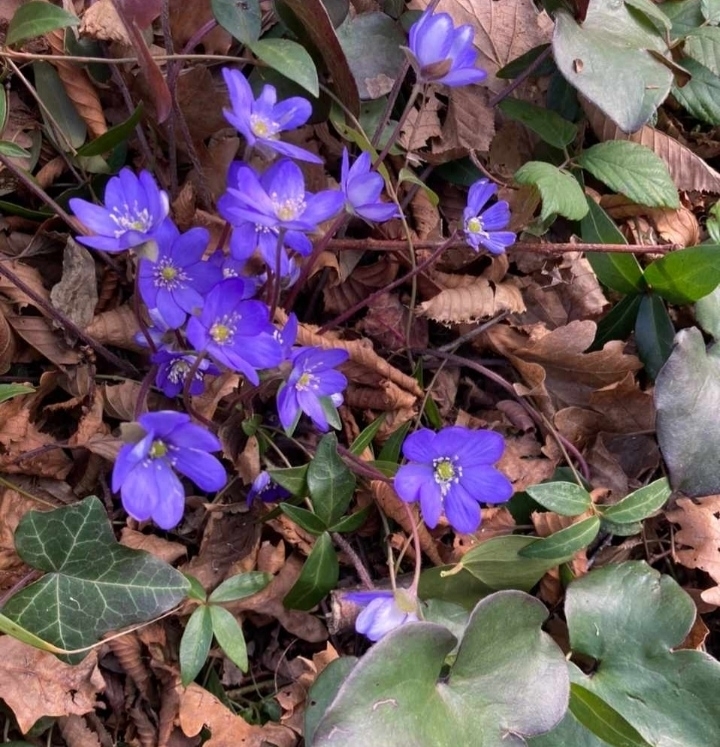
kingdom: Plantae
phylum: Tracheophyta
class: Magnoliopsida
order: Ranunculales
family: Ranunculaceae
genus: Hepatica
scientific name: Hepatica nobilis
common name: Liverleaf
